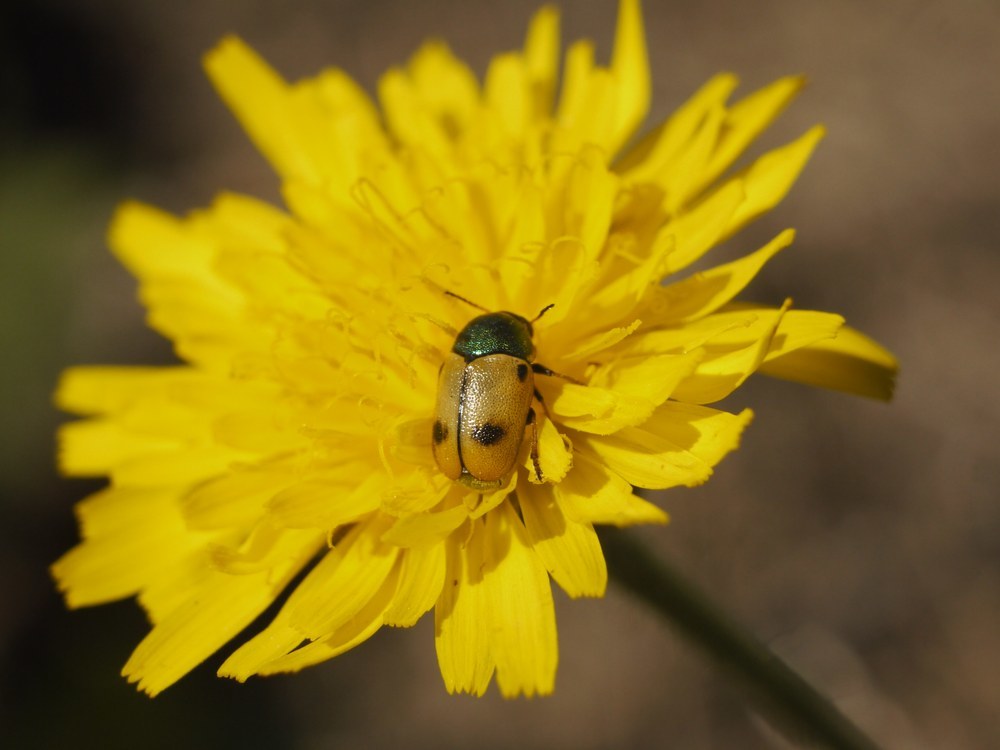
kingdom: Animalia
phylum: Arthropoda
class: Insecta
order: Coleoptera
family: Chrysomelidae
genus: Cryptocephalus
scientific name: Cryptocephalus laetus
